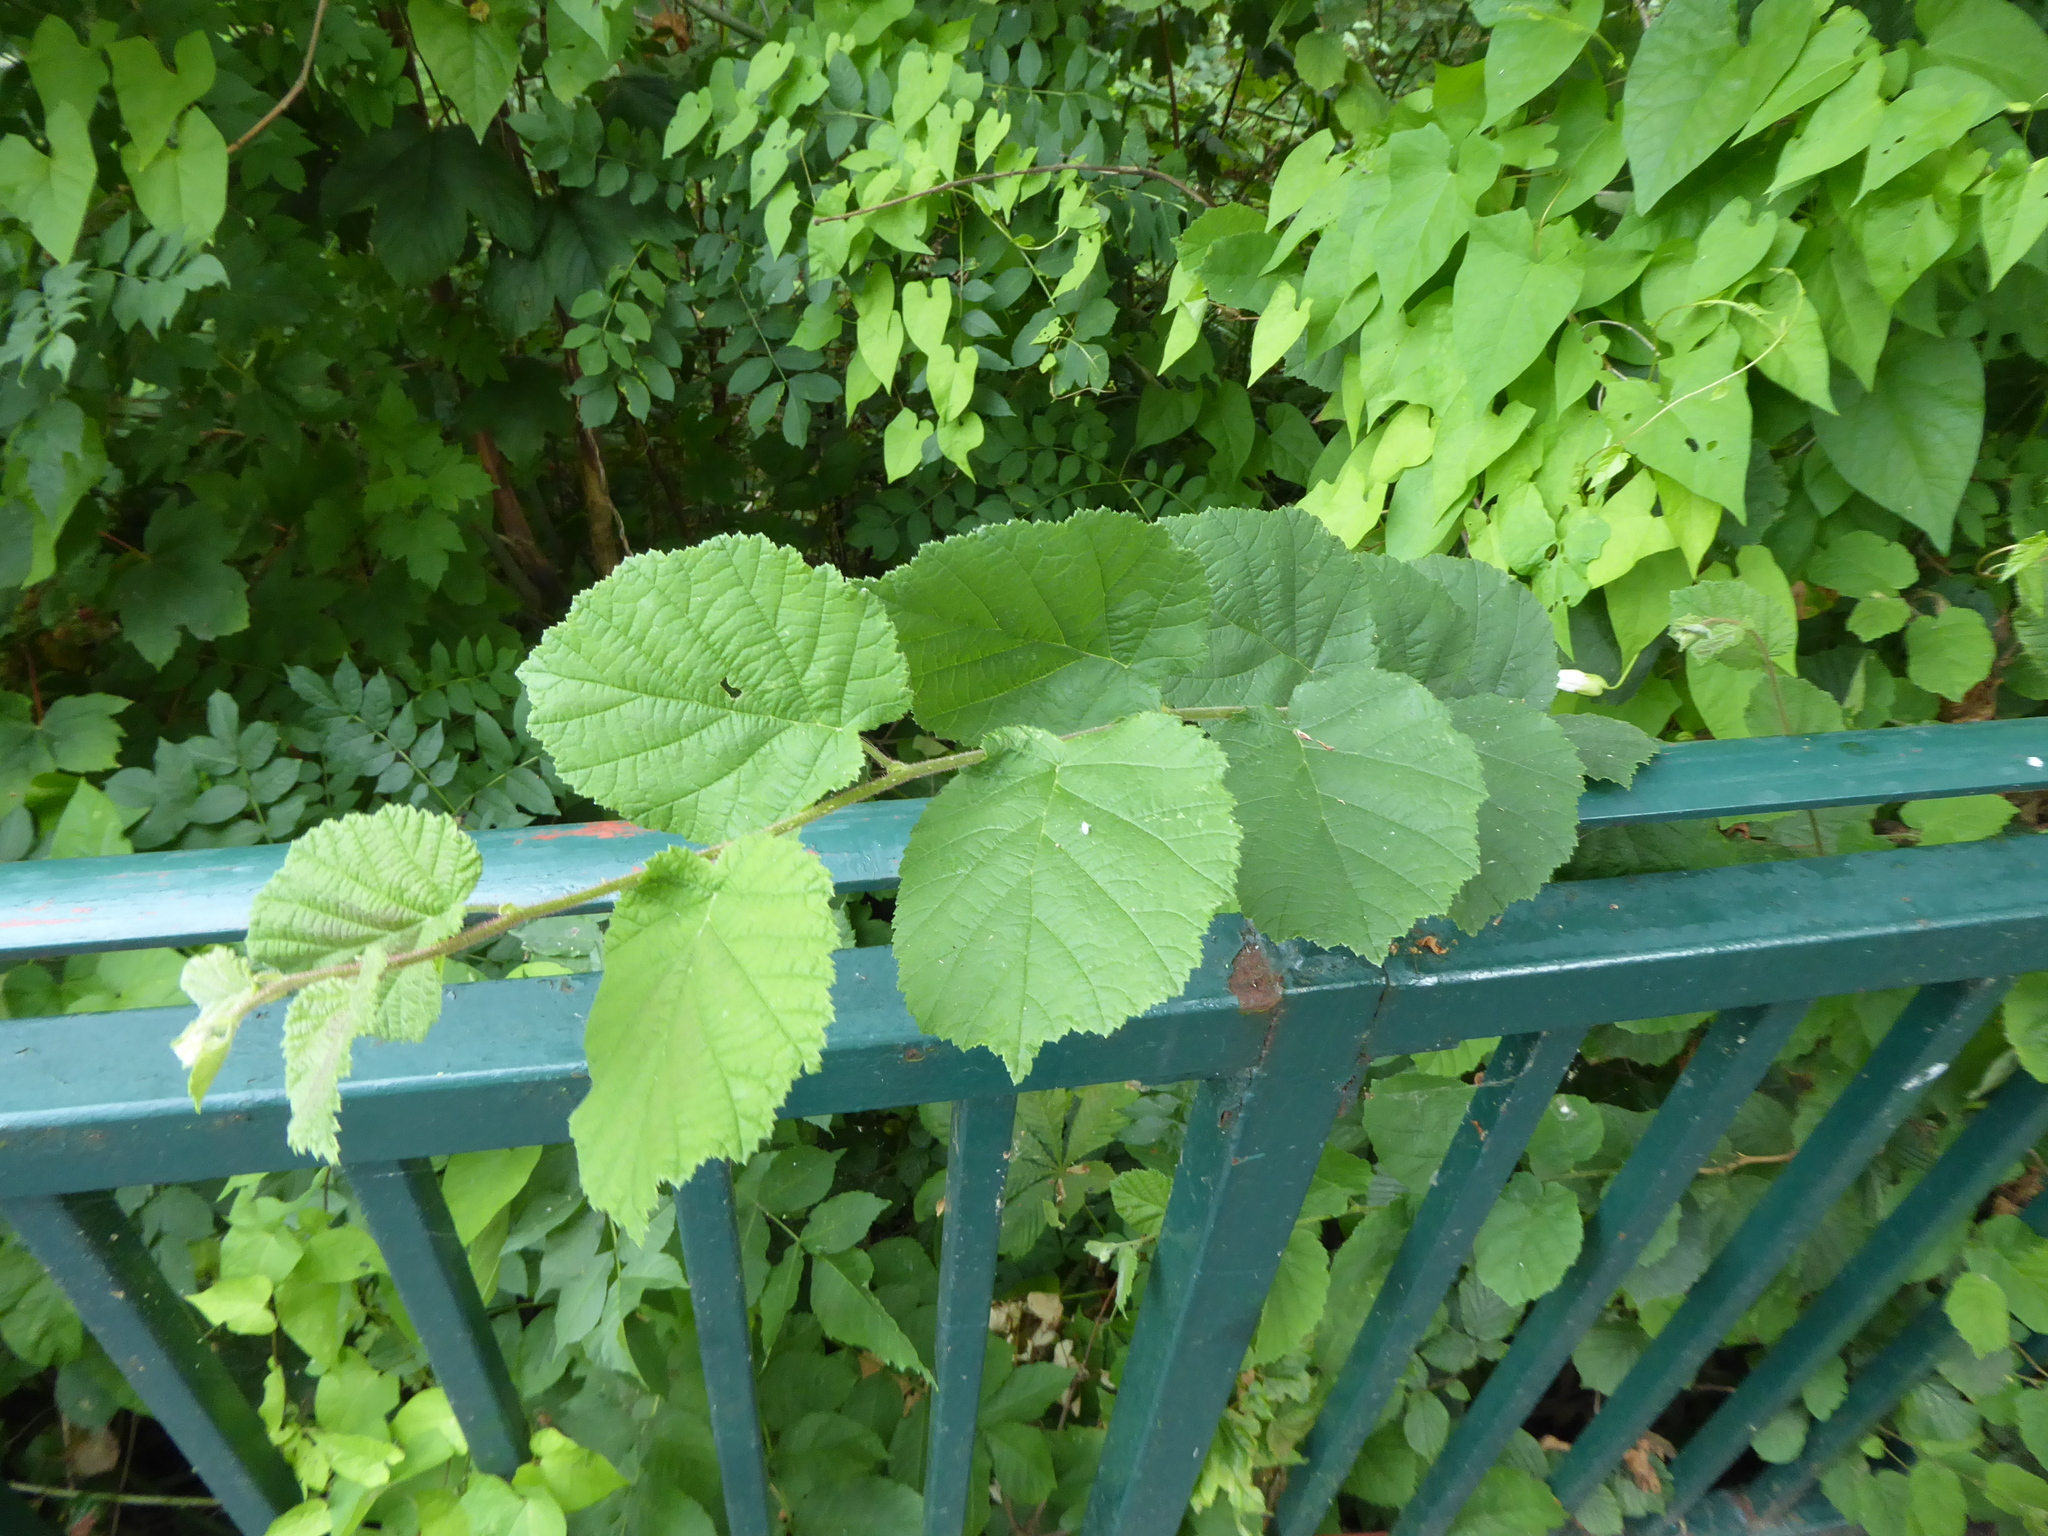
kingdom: Plantae
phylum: Tracheophyta
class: Magnoliopsida
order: Fagales
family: Betulaceae
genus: Corylus
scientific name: Corylus avellana
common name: European hazel
